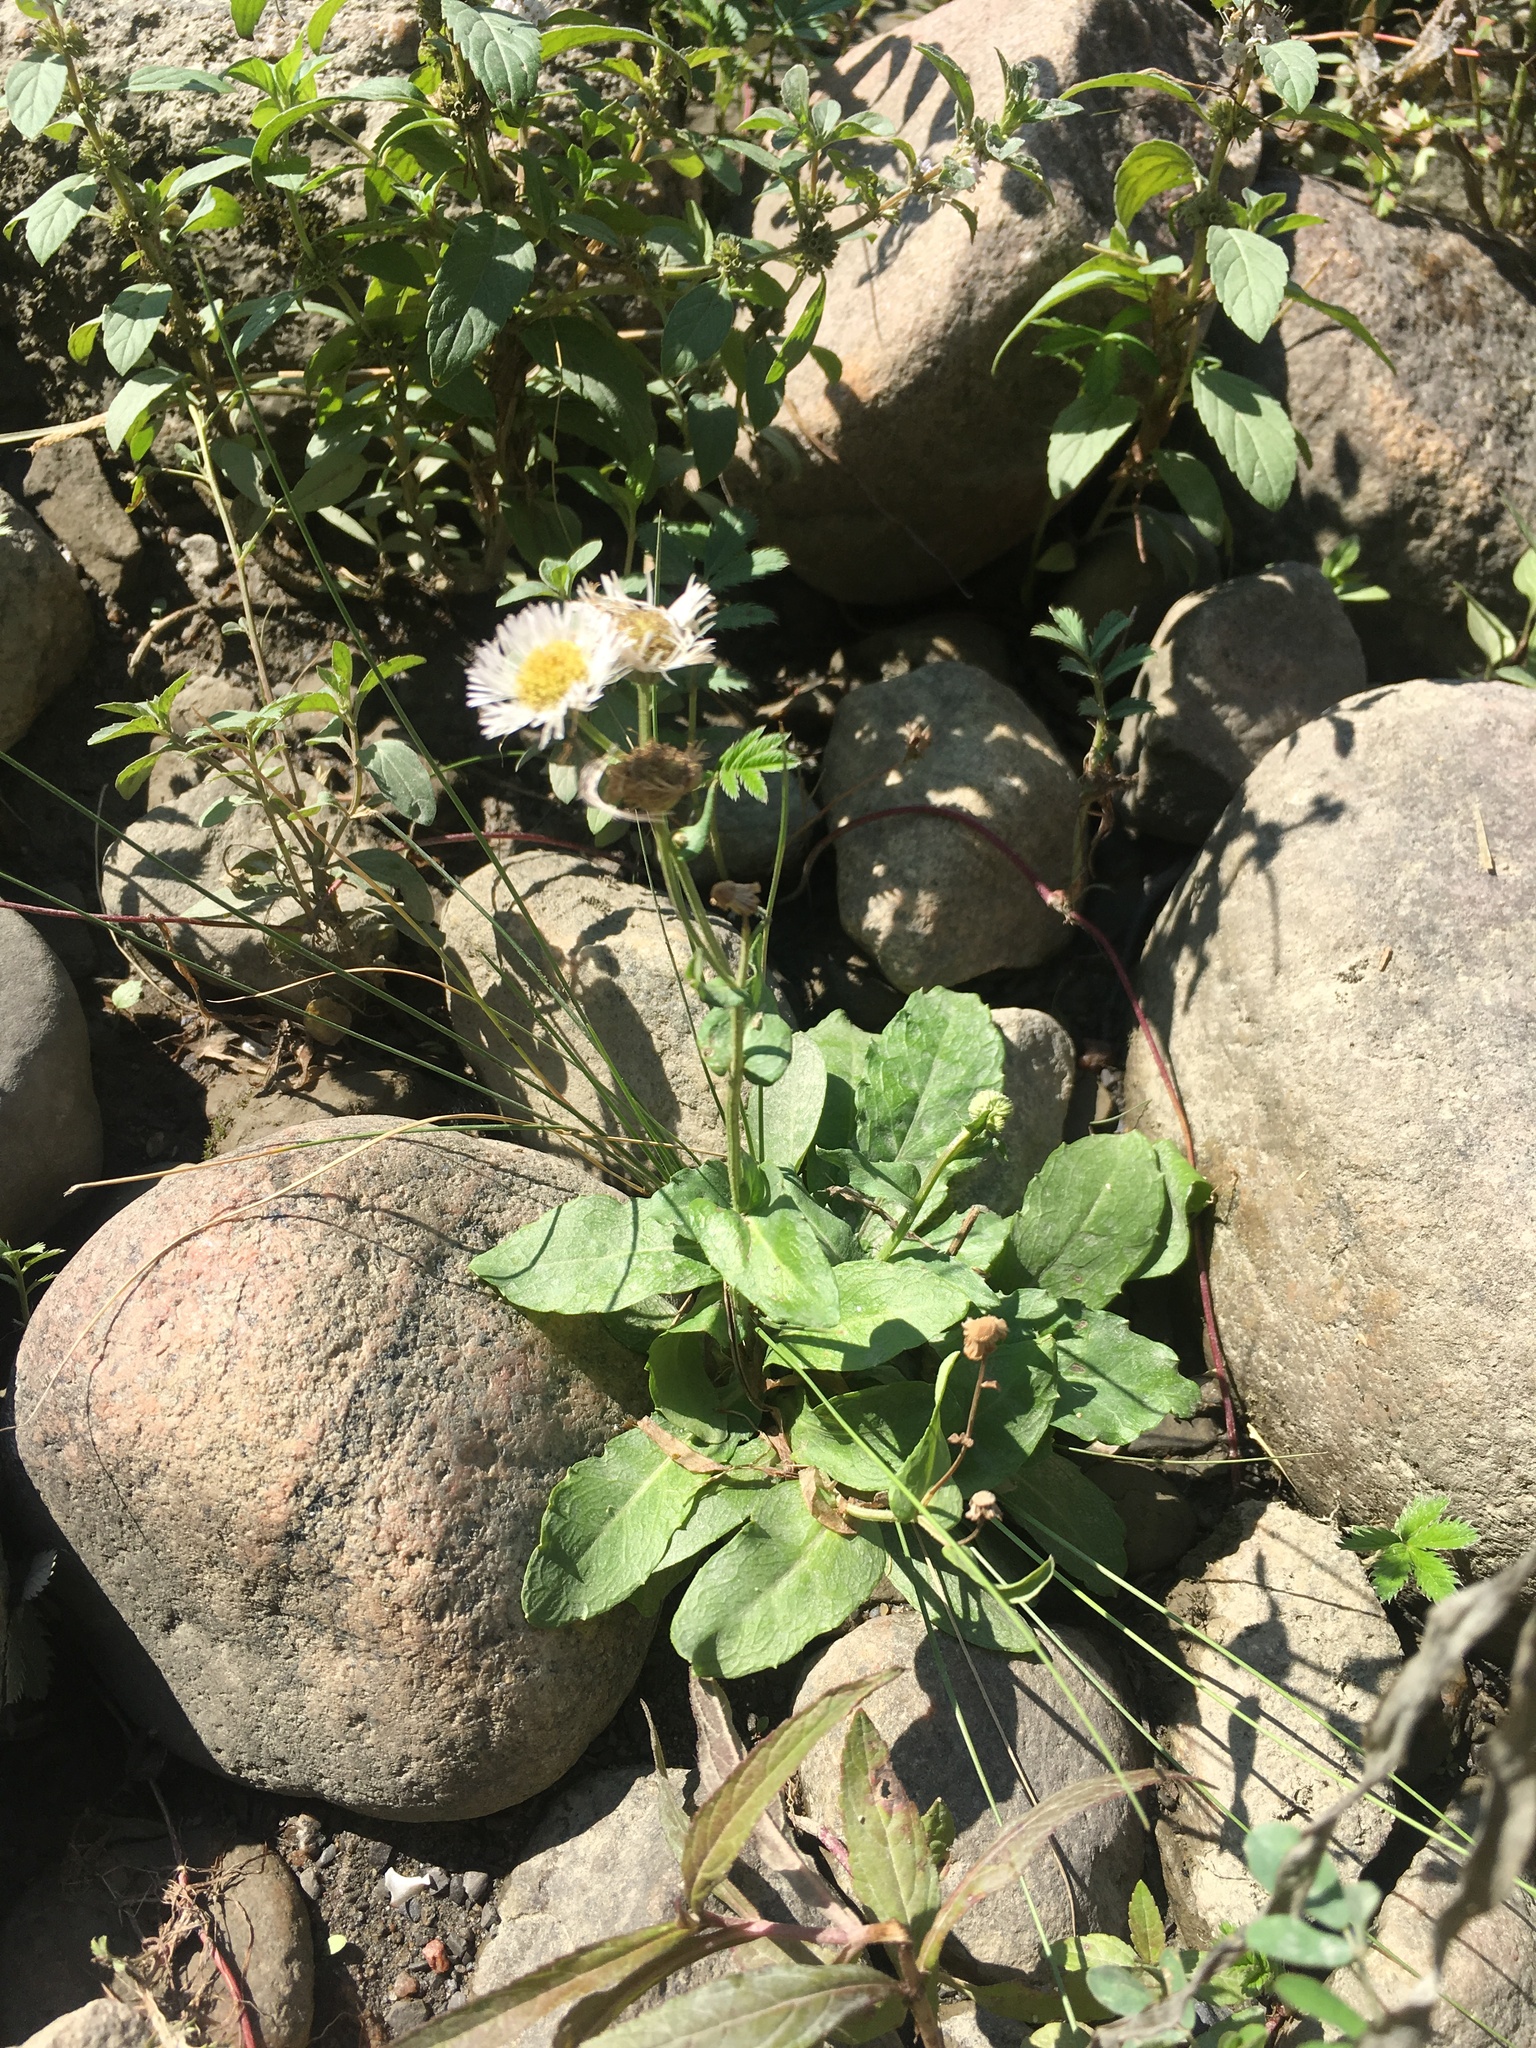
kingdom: Plantae
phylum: Tracheophyta
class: Magnoliopsida
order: Asterales
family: Asteraceae
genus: Erigeron
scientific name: Erigeron philadelphicus
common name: Robin's-plantain
